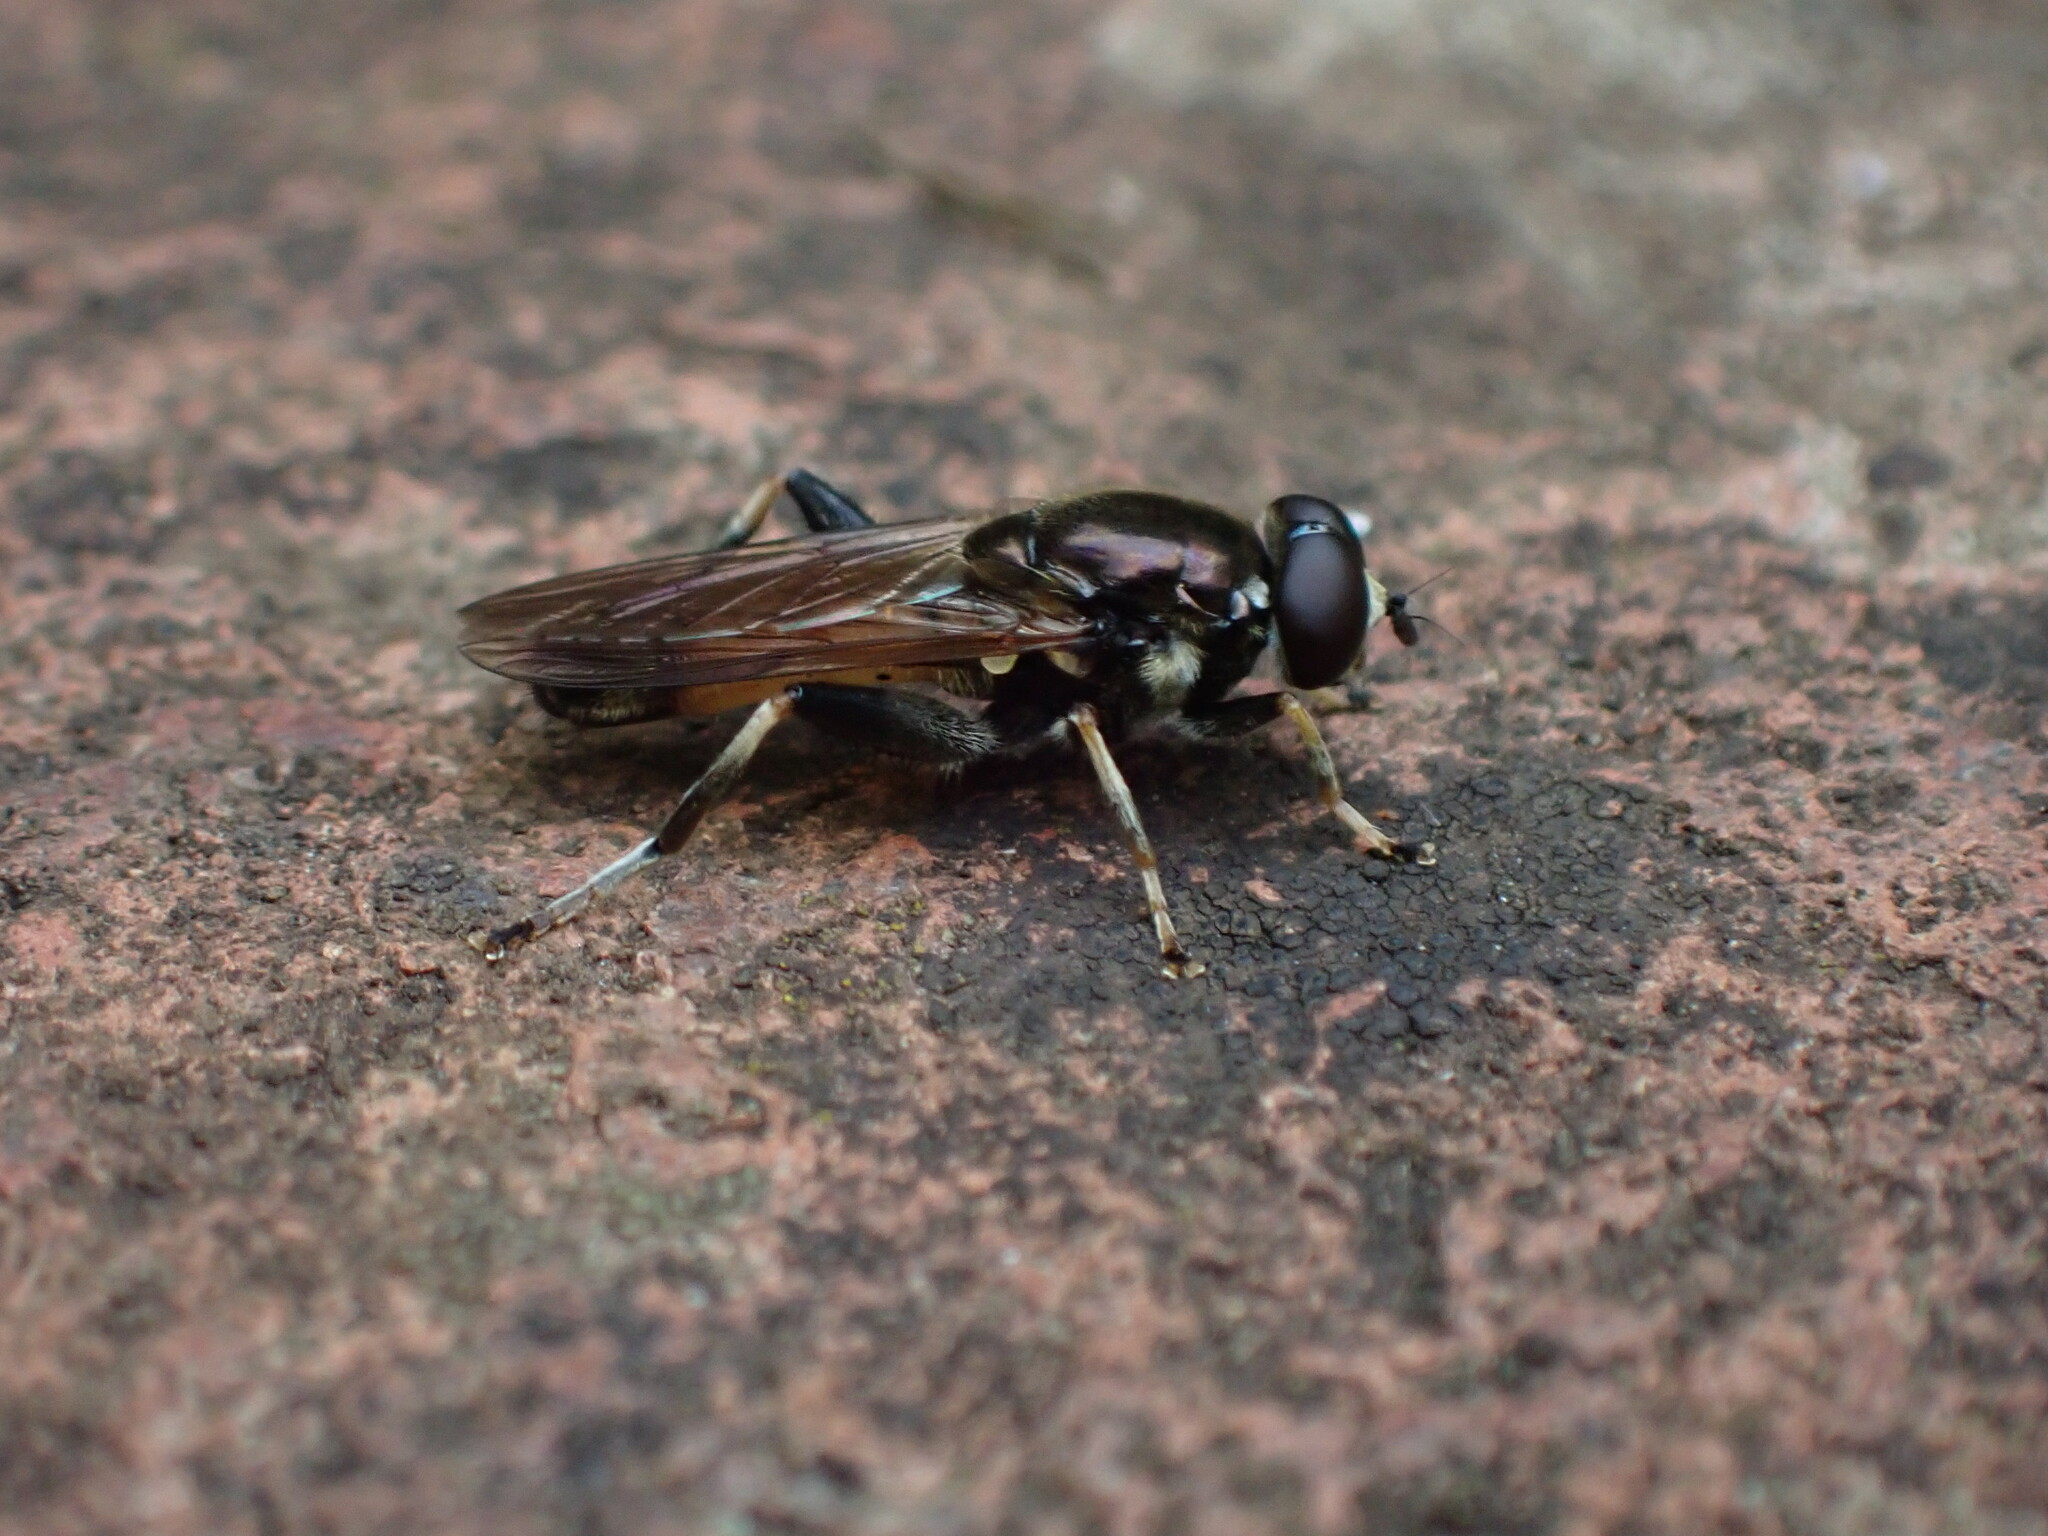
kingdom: Animalia
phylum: Arthropoda
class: Insecta
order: Diptera
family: Syrphidae
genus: Xylota
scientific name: Xylota segnis
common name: Brown-toed forest fly
